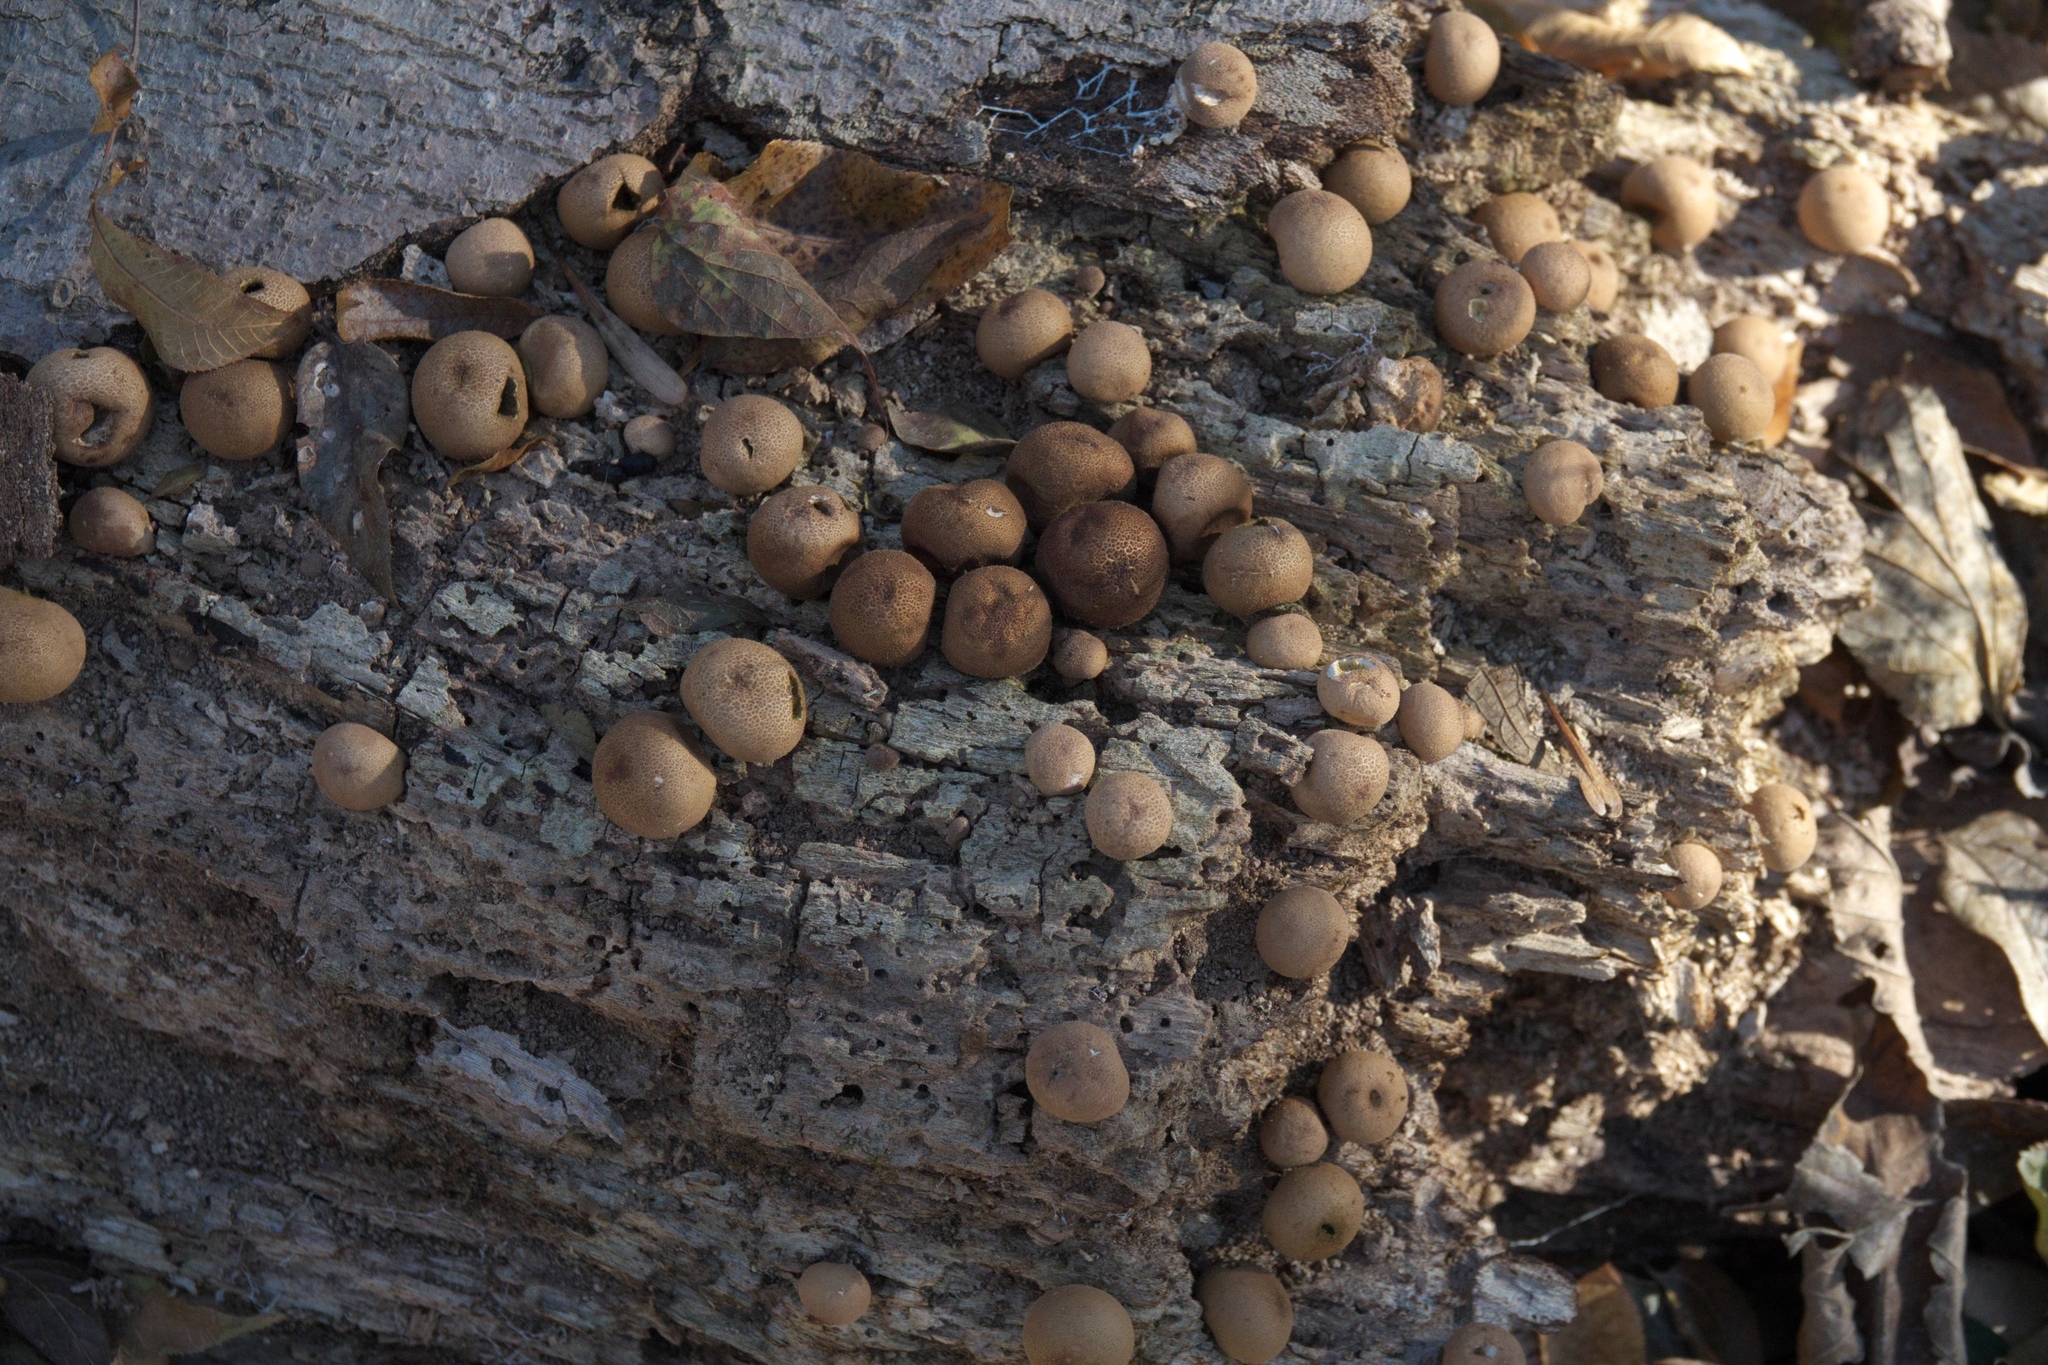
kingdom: Fungi
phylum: Basidiomycota
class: Agaricomycetes
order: Agaricales
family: Lycoperdaceae
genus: Apioperdon
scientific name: Apioperdon pyriforme
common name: Pear-shaped puffball
